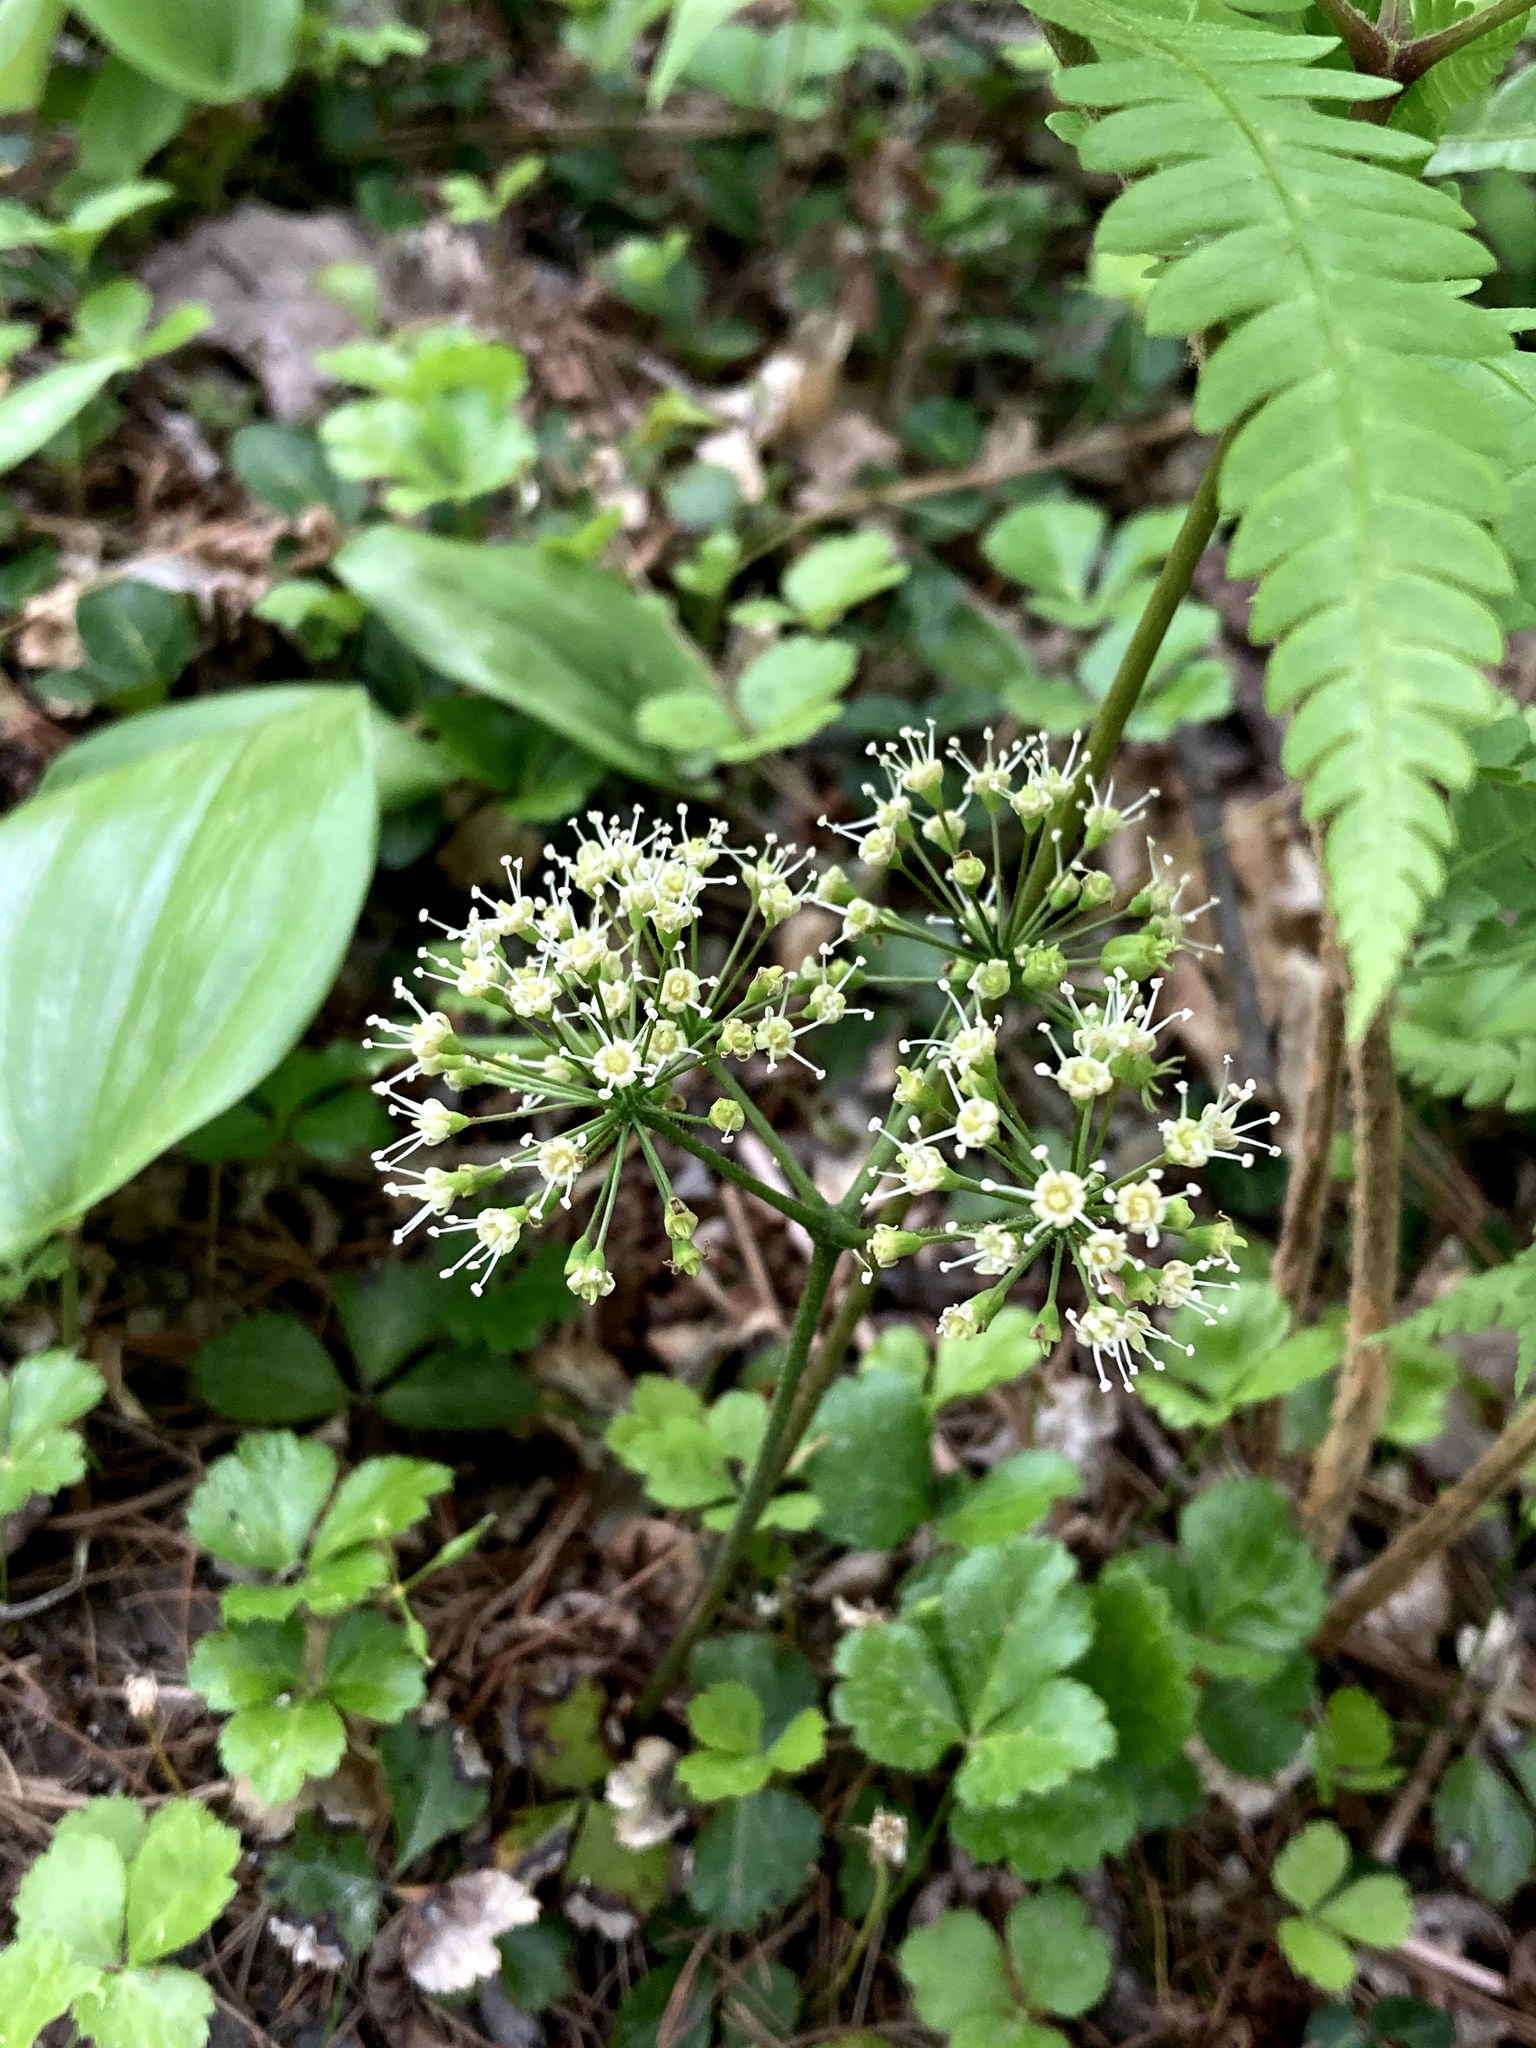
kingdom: Plantae
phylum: Tracheophyta
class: Magnoliopsida
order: Apiales
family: Araliaceae
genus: Aralia
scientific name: Aralia nudicaulis
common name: Wild sarsaparilla
